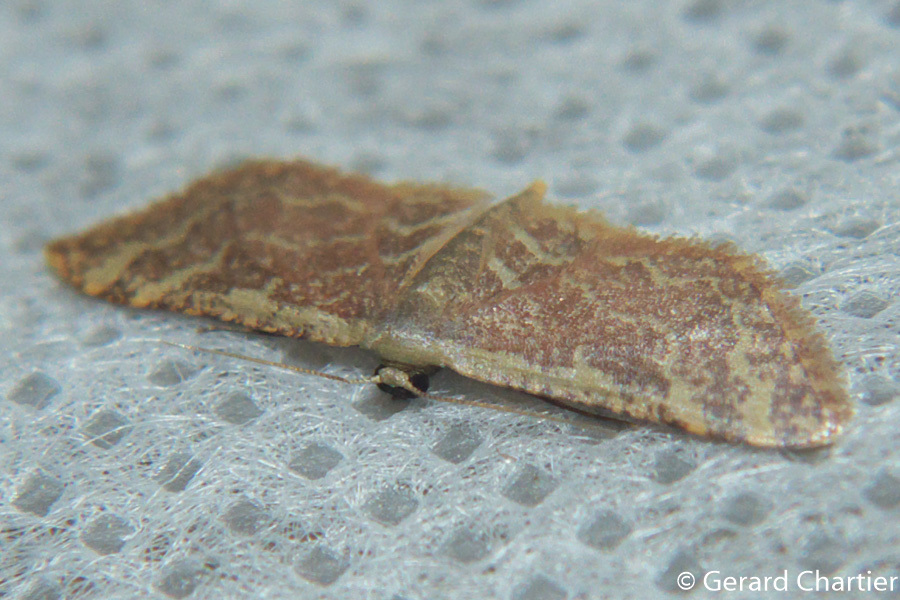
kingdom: Animalia
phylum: Arthropoda
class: Insecta
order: Lepidoptera
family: Geometridae
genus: Lophophleps
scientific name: Lophophleps purpurea
